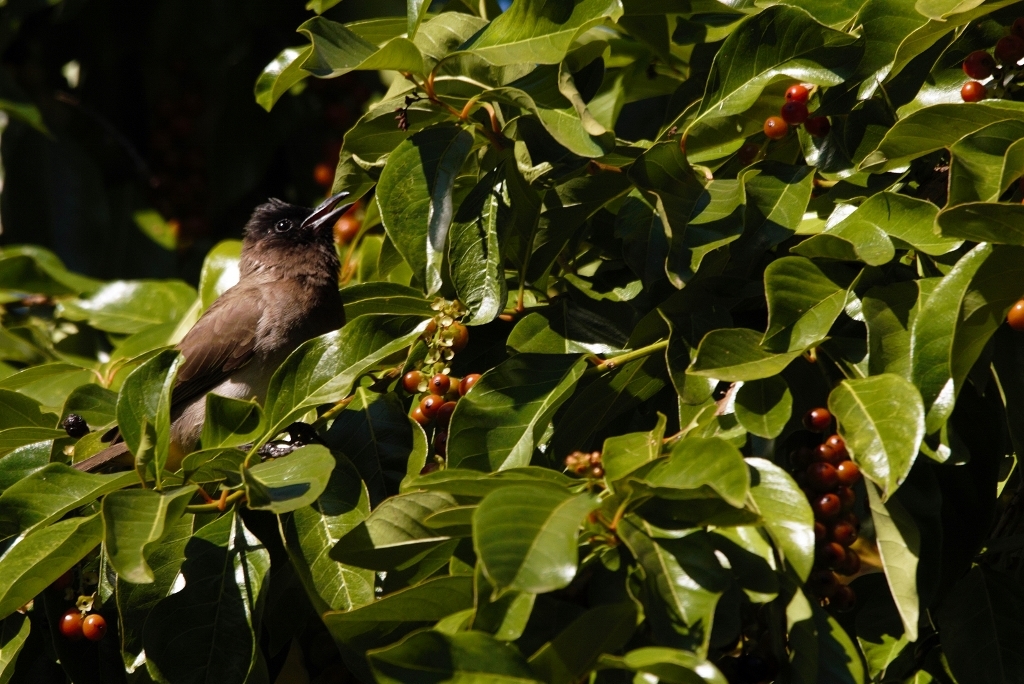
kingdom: Animalia
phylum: Chordata
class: Aves
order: Passeriformes
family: Pycnonotidae
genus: Pycnonotus
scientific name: Pycnonotus barbatus
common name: Common bulbul
